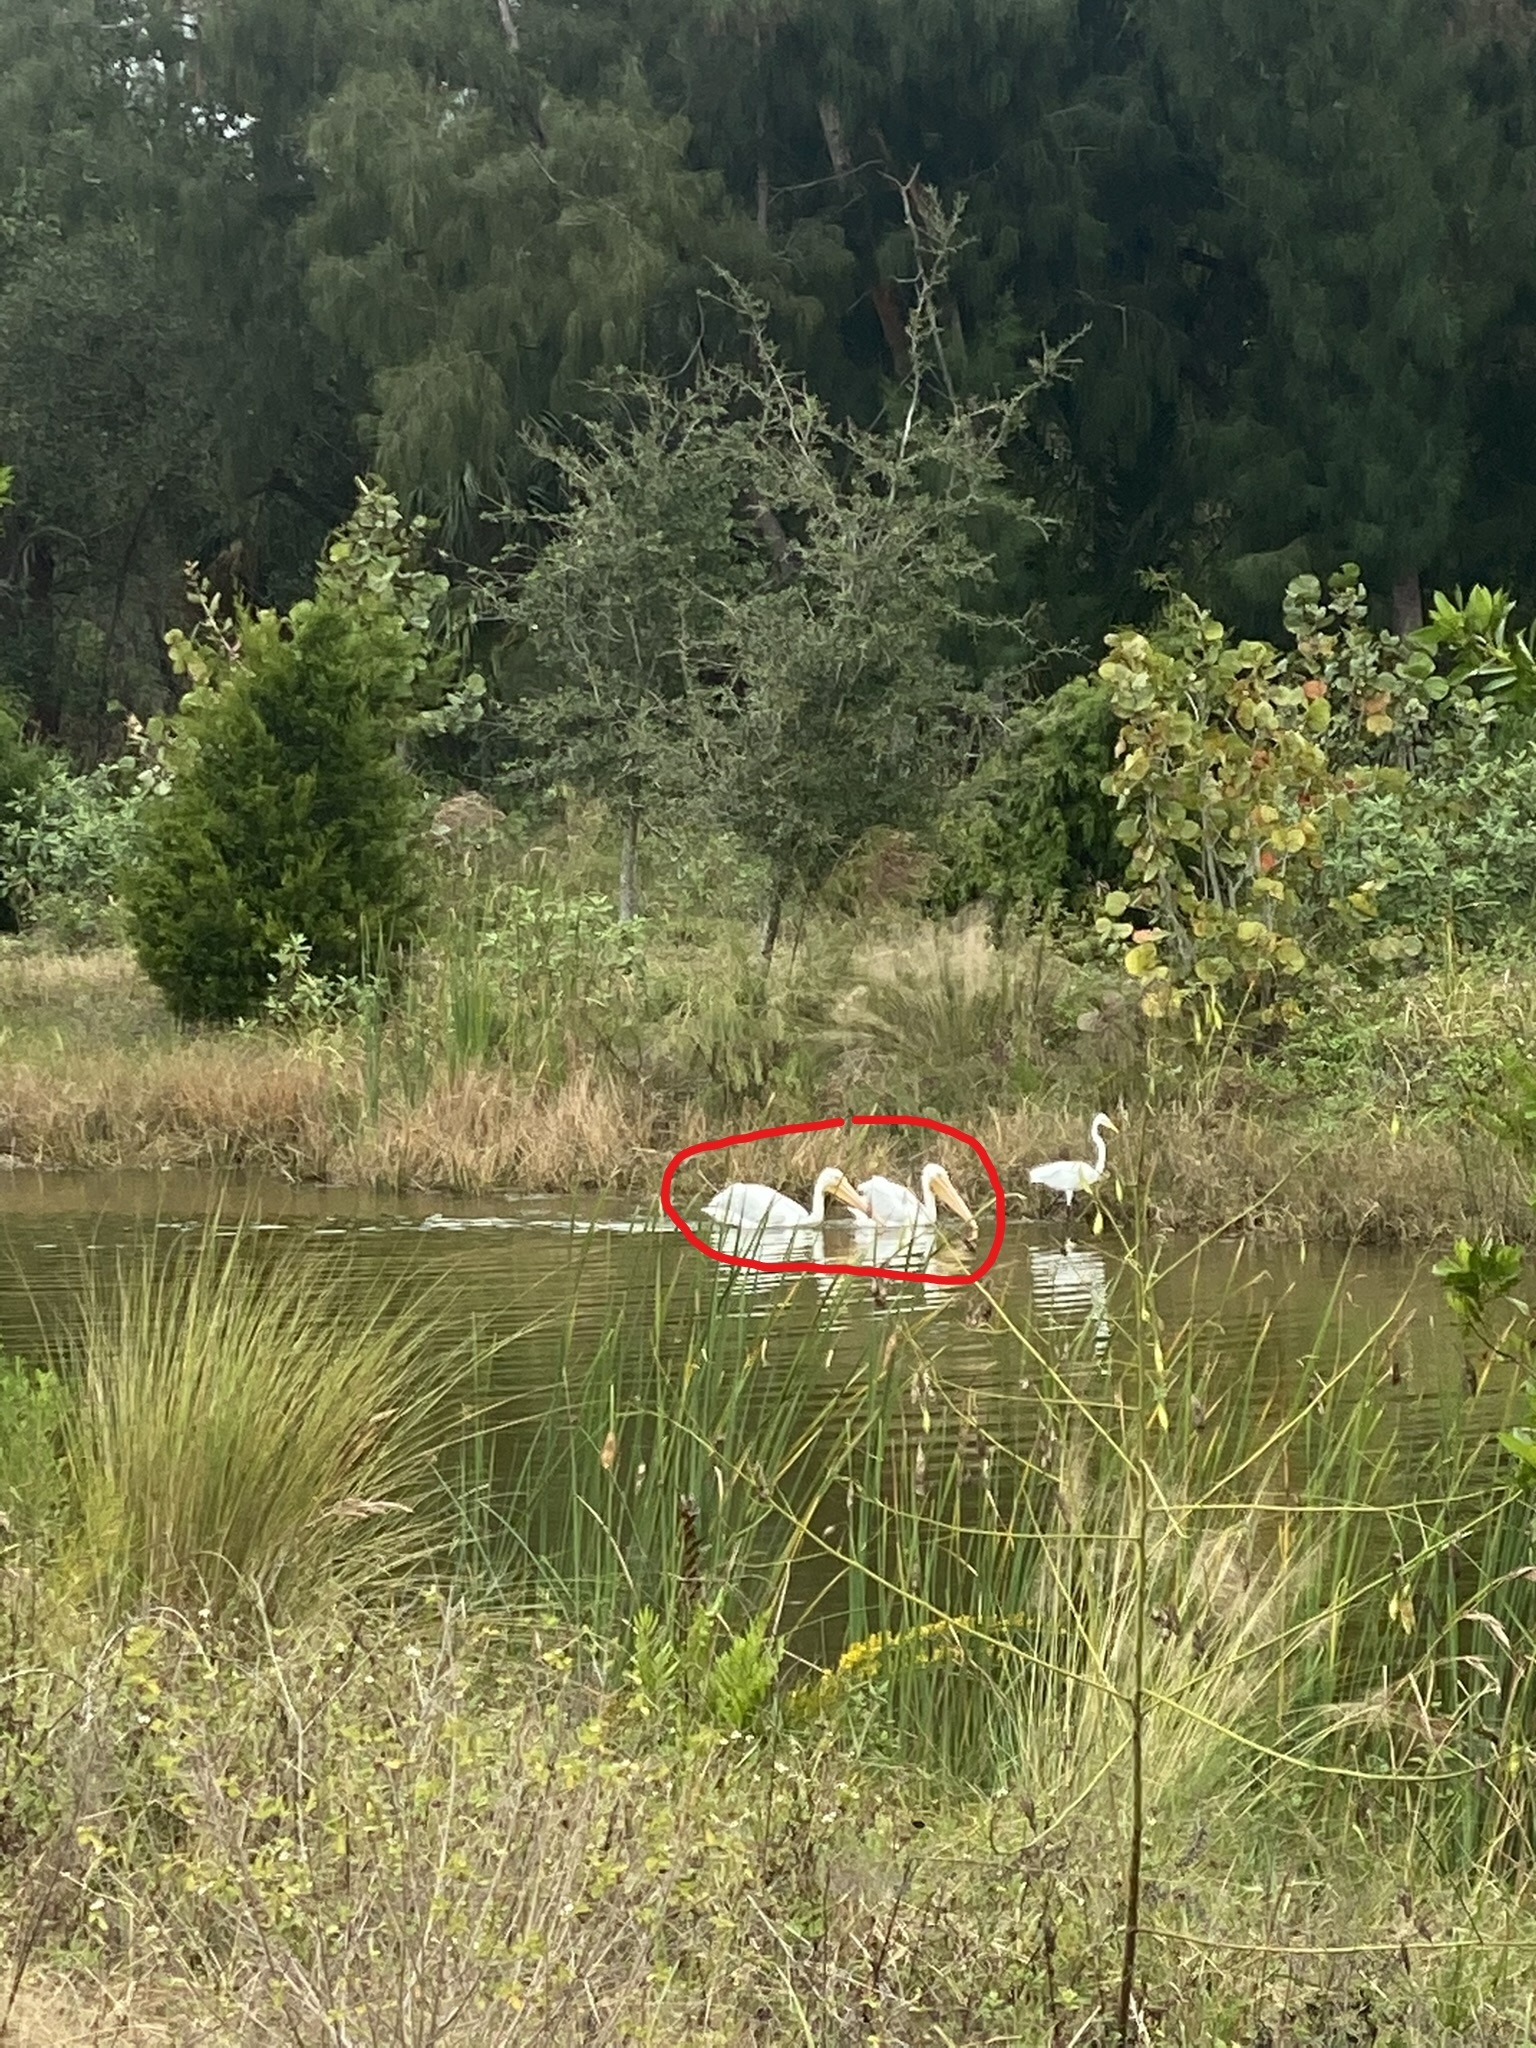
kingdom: Animalia
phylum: Chordata
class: Aves
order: Pelecaniformes
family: Pelecanidae
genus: Pelecanus
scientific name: Pelecanus erythrorhynchos
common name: American white pelican
